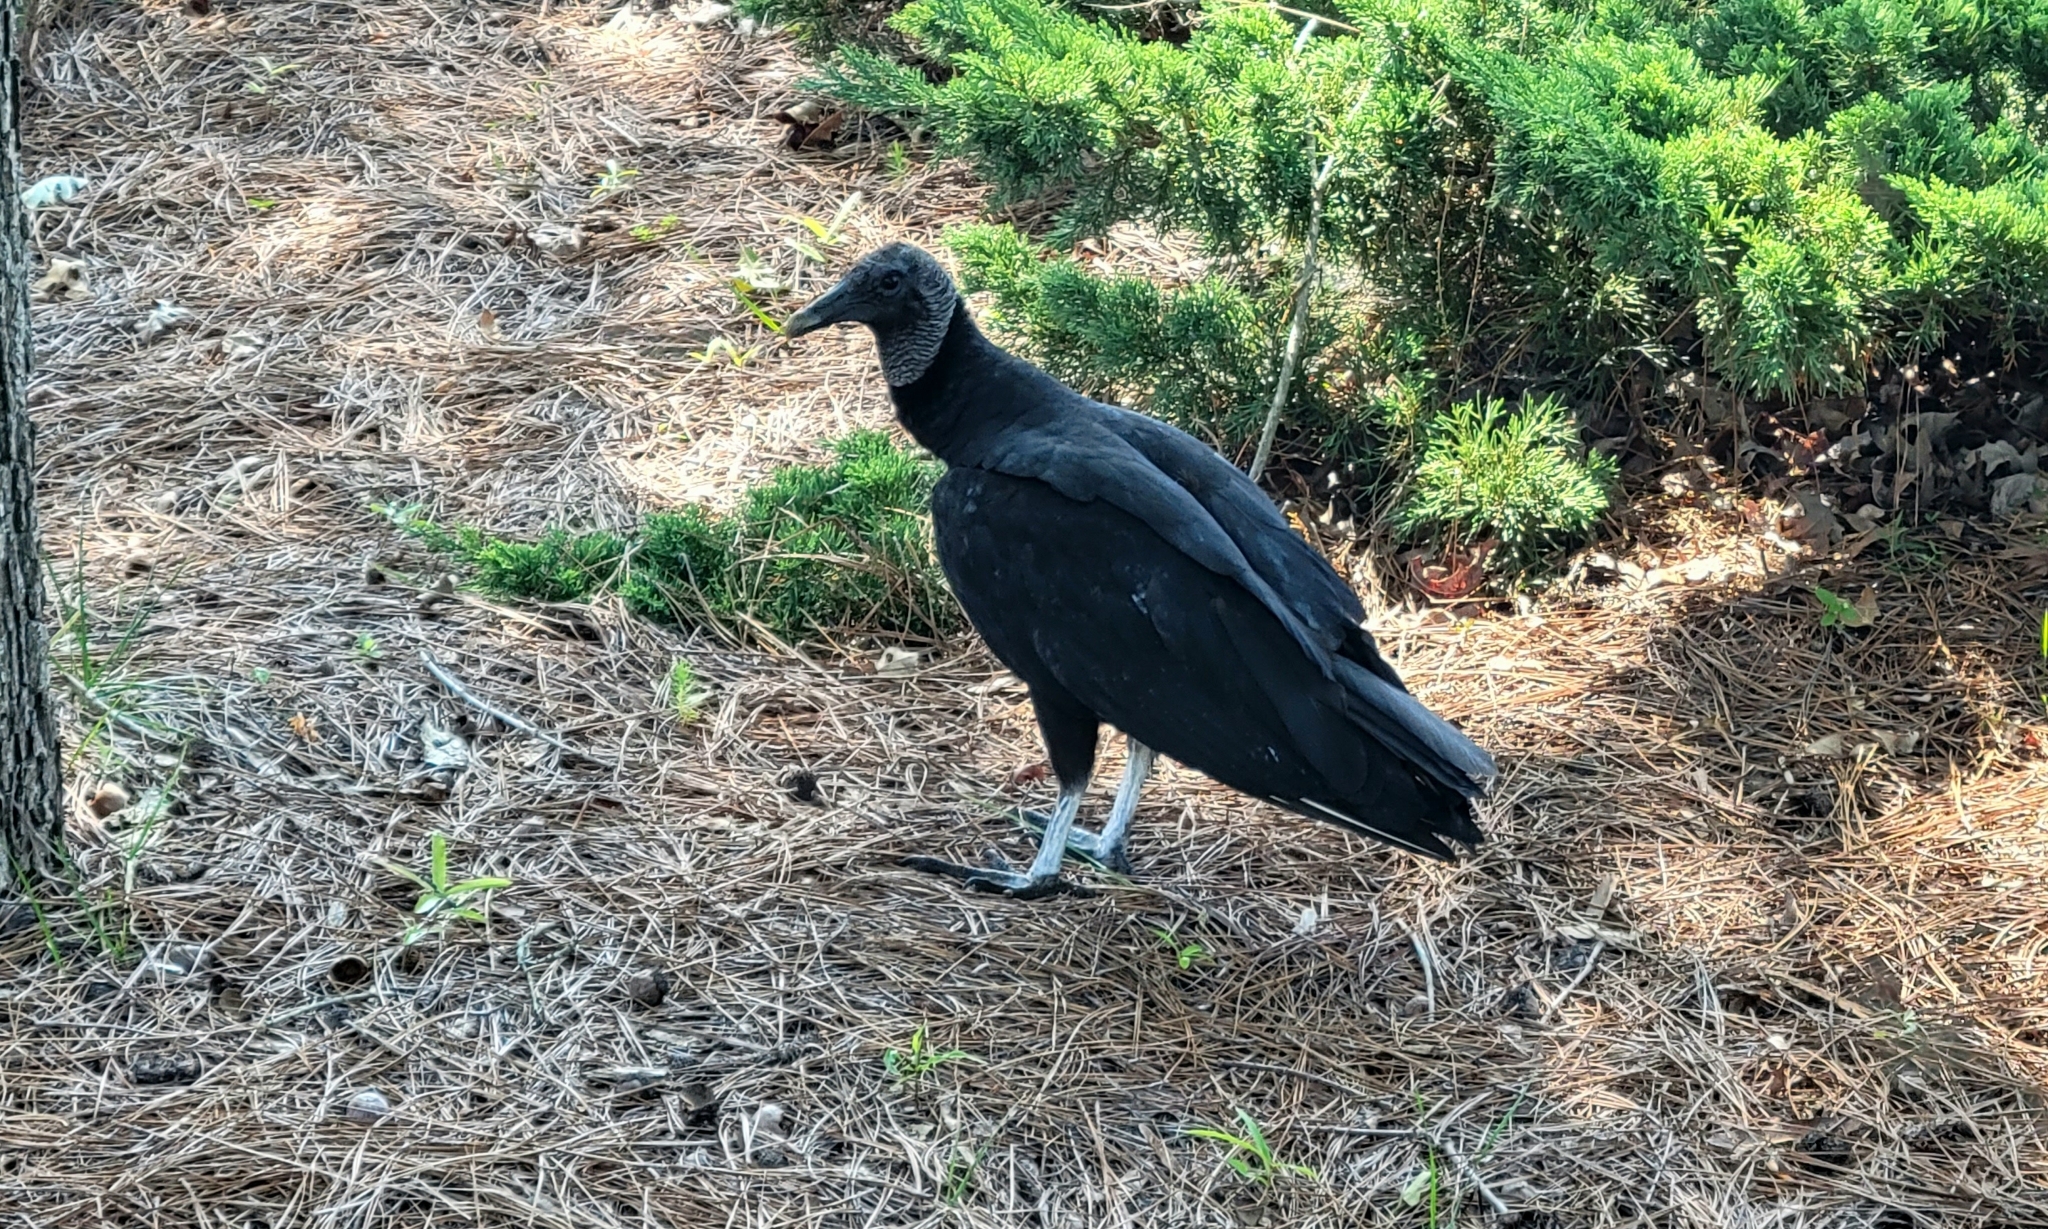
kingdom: Animalia
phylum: Chordata
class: Aves
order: Accipitriformes
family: Cathartidae
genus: Coragyps
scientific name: Coragyps atratus
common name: Black vulture
